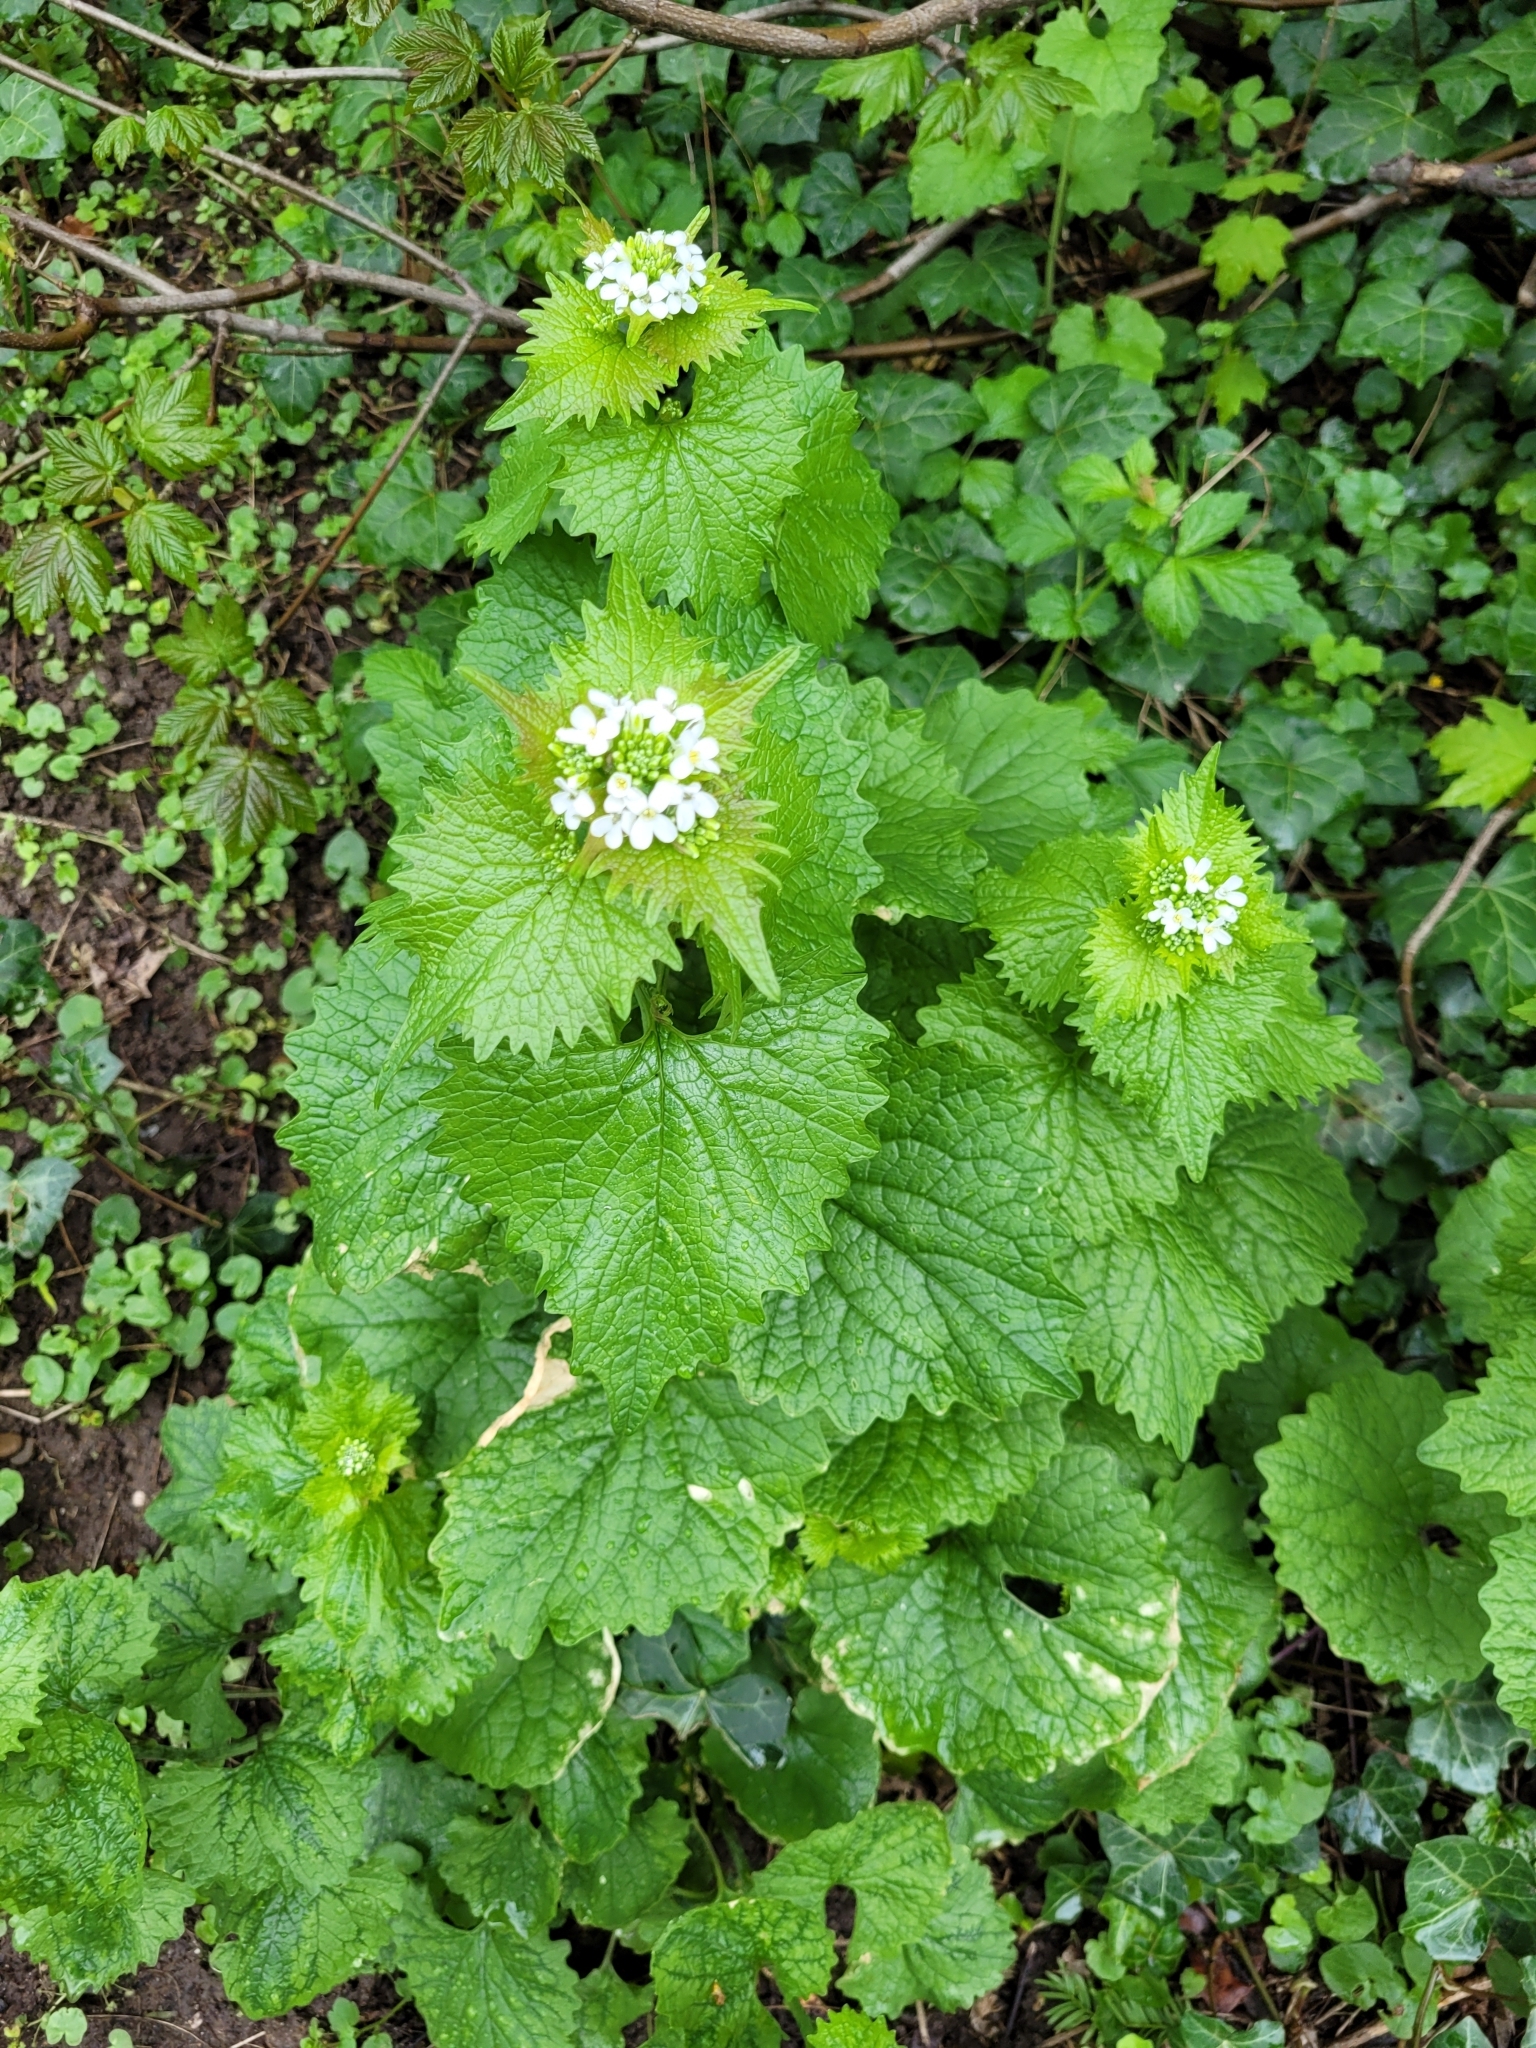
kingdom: Plantae
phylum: Tracheophyta
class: Magnoliopsida
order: Brassicales
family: Brassicaceae
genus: Alliaria
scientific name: Alliaria petiolata
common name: Garlic mustard
